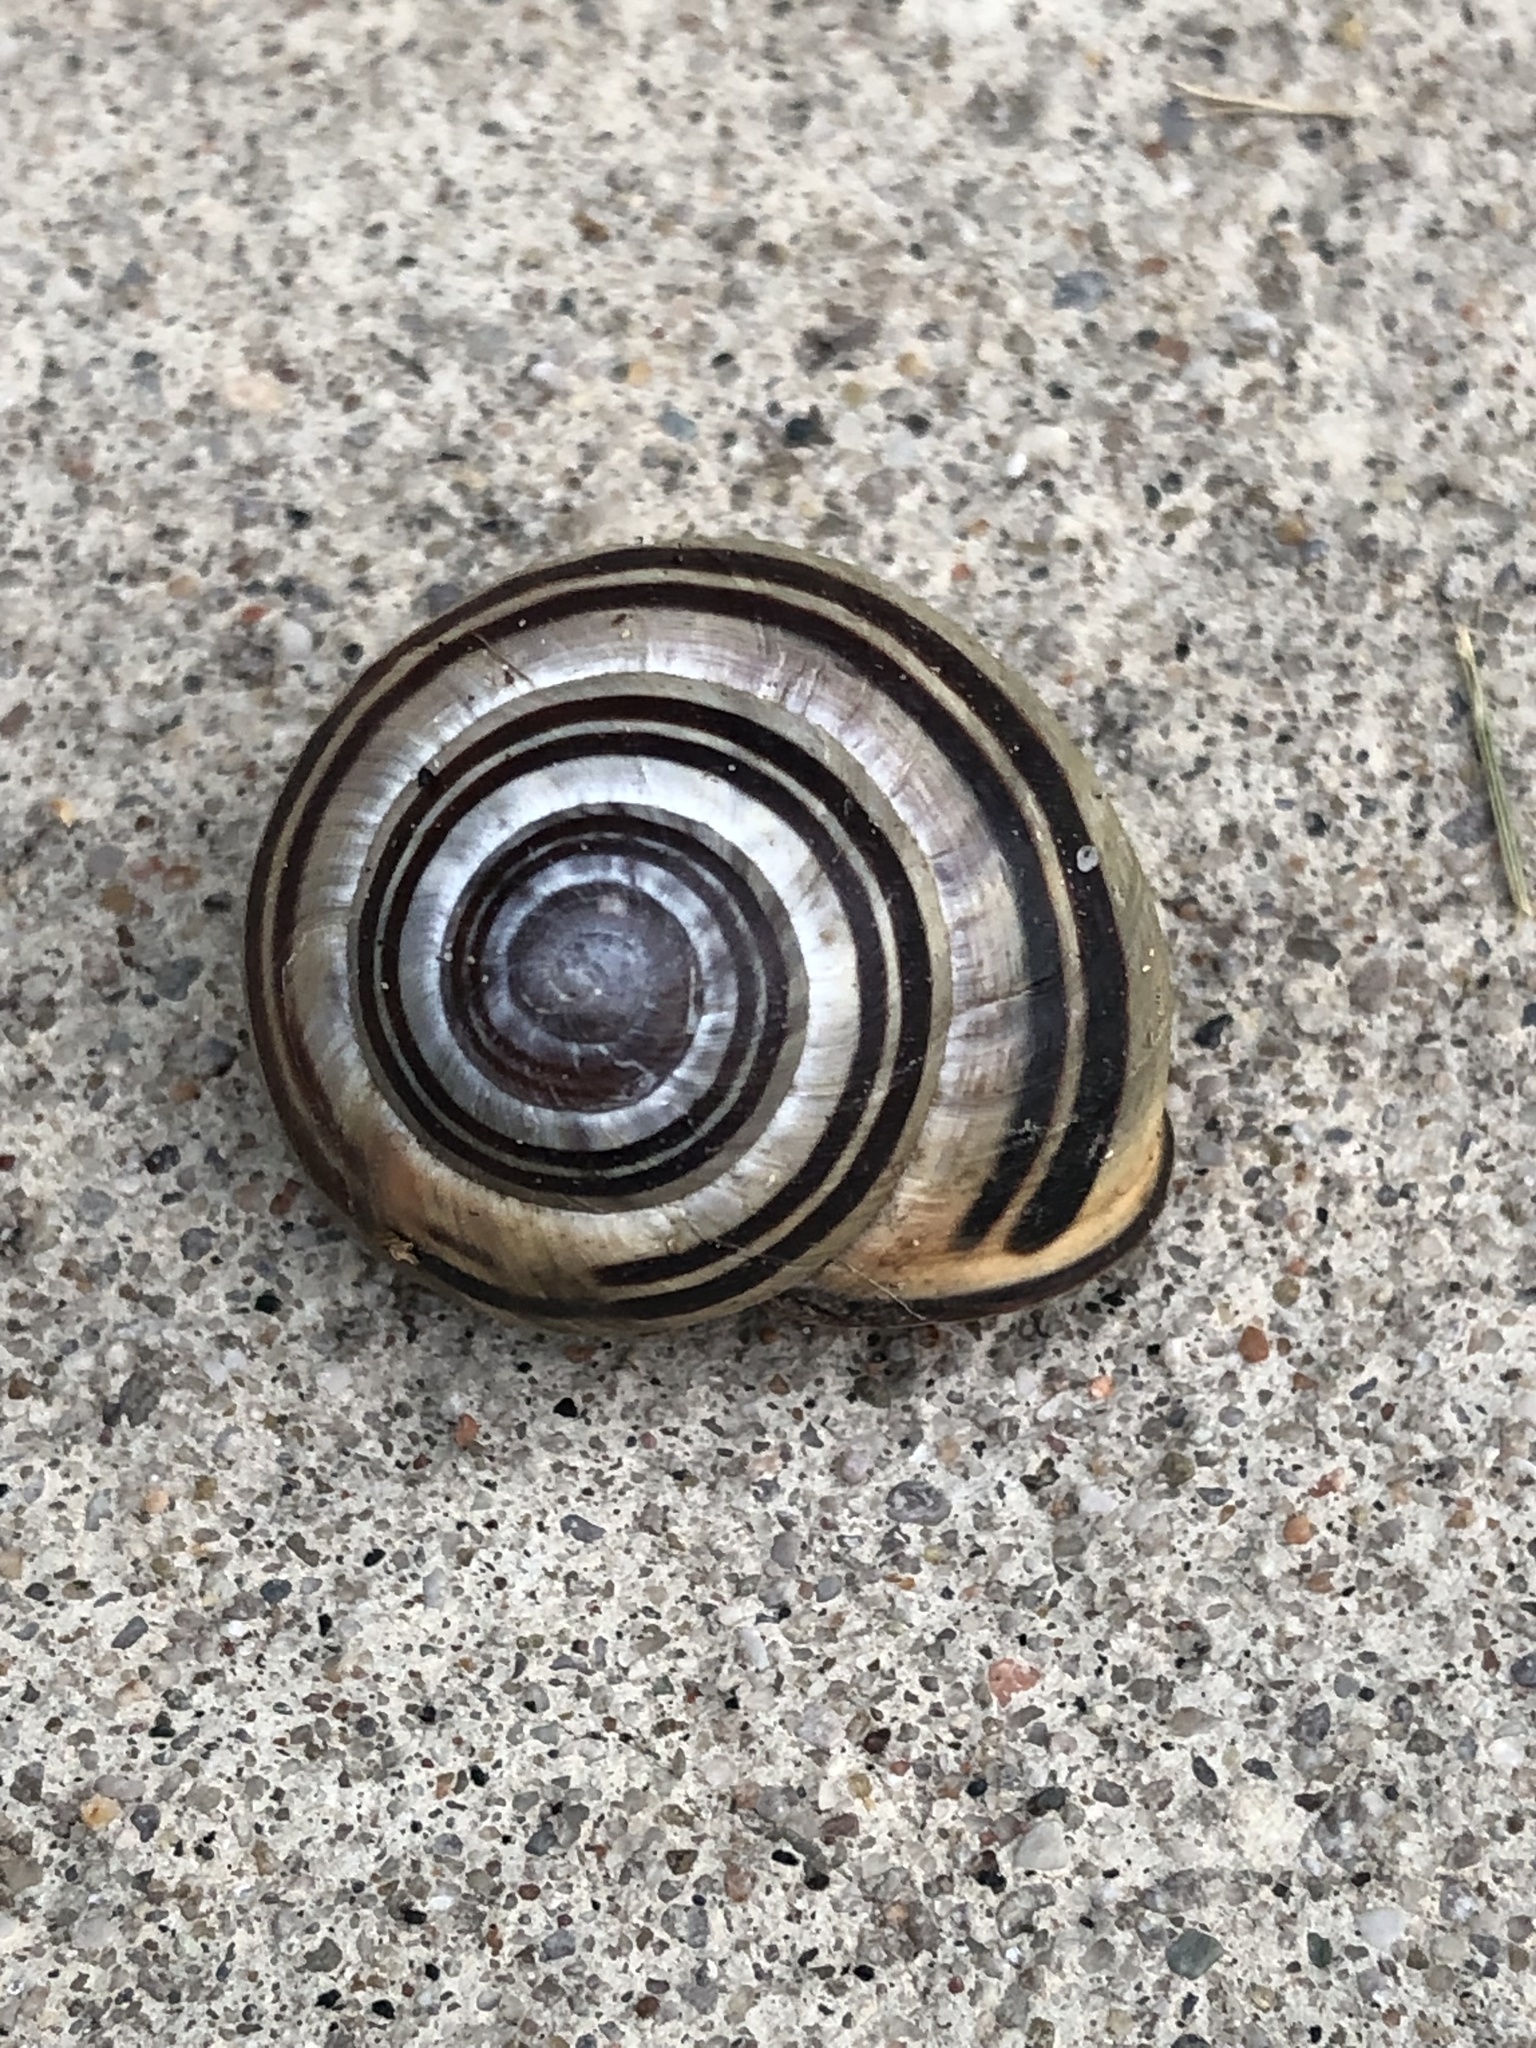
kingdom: Animalia
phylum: Mollusca
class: Gastropoda
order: Stylommatophora
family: Helicidae
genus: Cepaea
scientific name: Cepaea nemoralis
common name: Grovesnail
